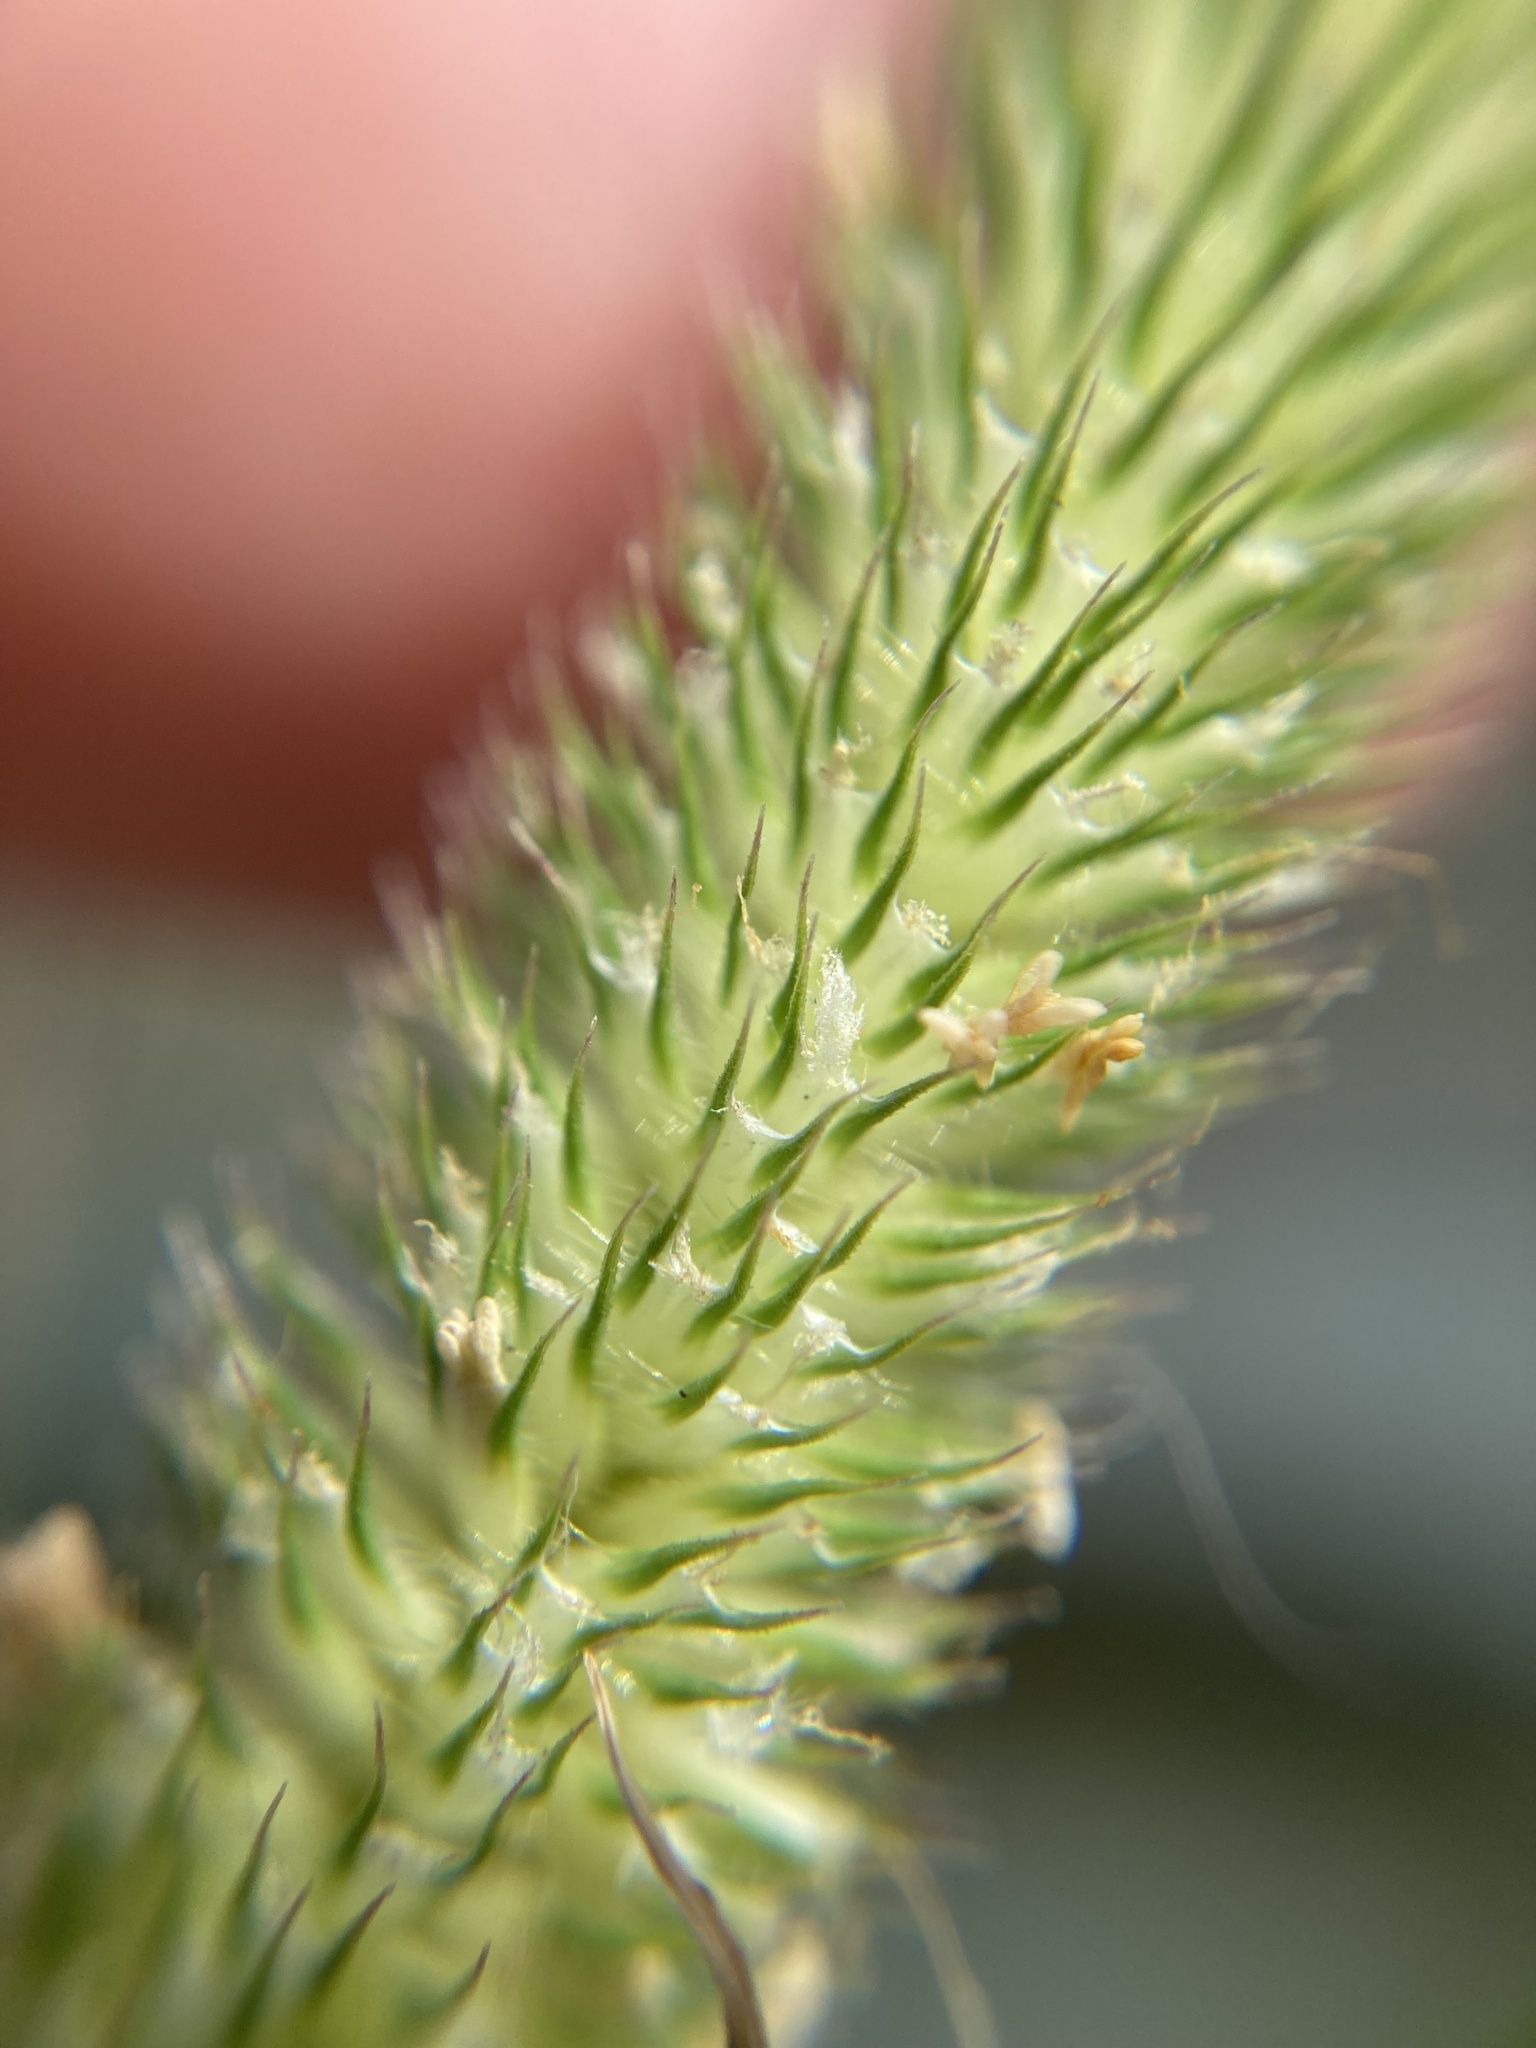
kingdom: Plantae
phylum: Tracheophyta
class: Liliopsida
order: Poales
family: Poaceae
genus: Phleum
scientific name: Phleum pratense
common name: Timothy grass
